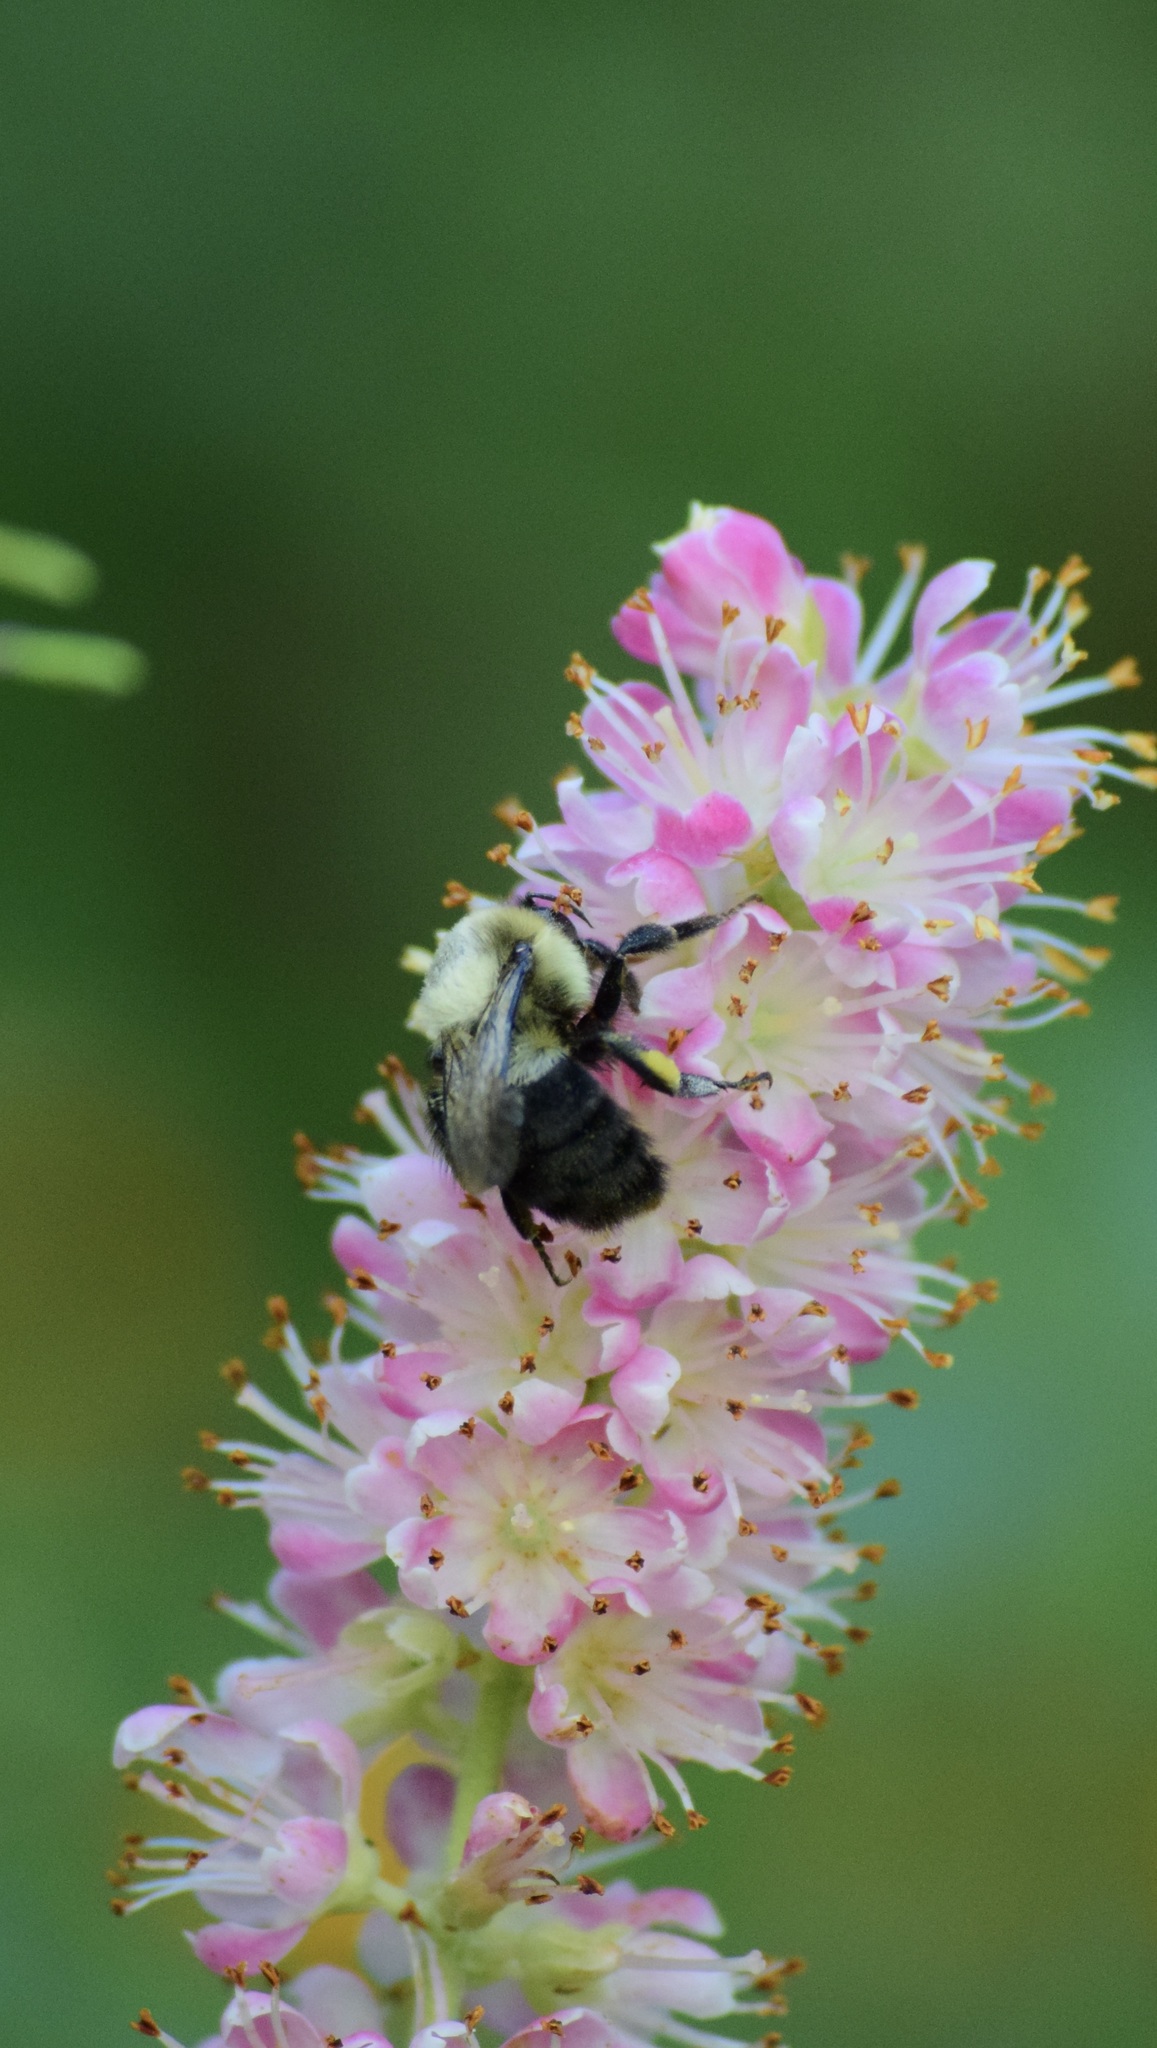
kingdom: Animalia
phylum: Arthropoda
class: Insecta
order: Hymenoptera
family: Apidae
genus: Bombus
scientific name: Bombus impatiens
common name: Common eastern bumble bee
